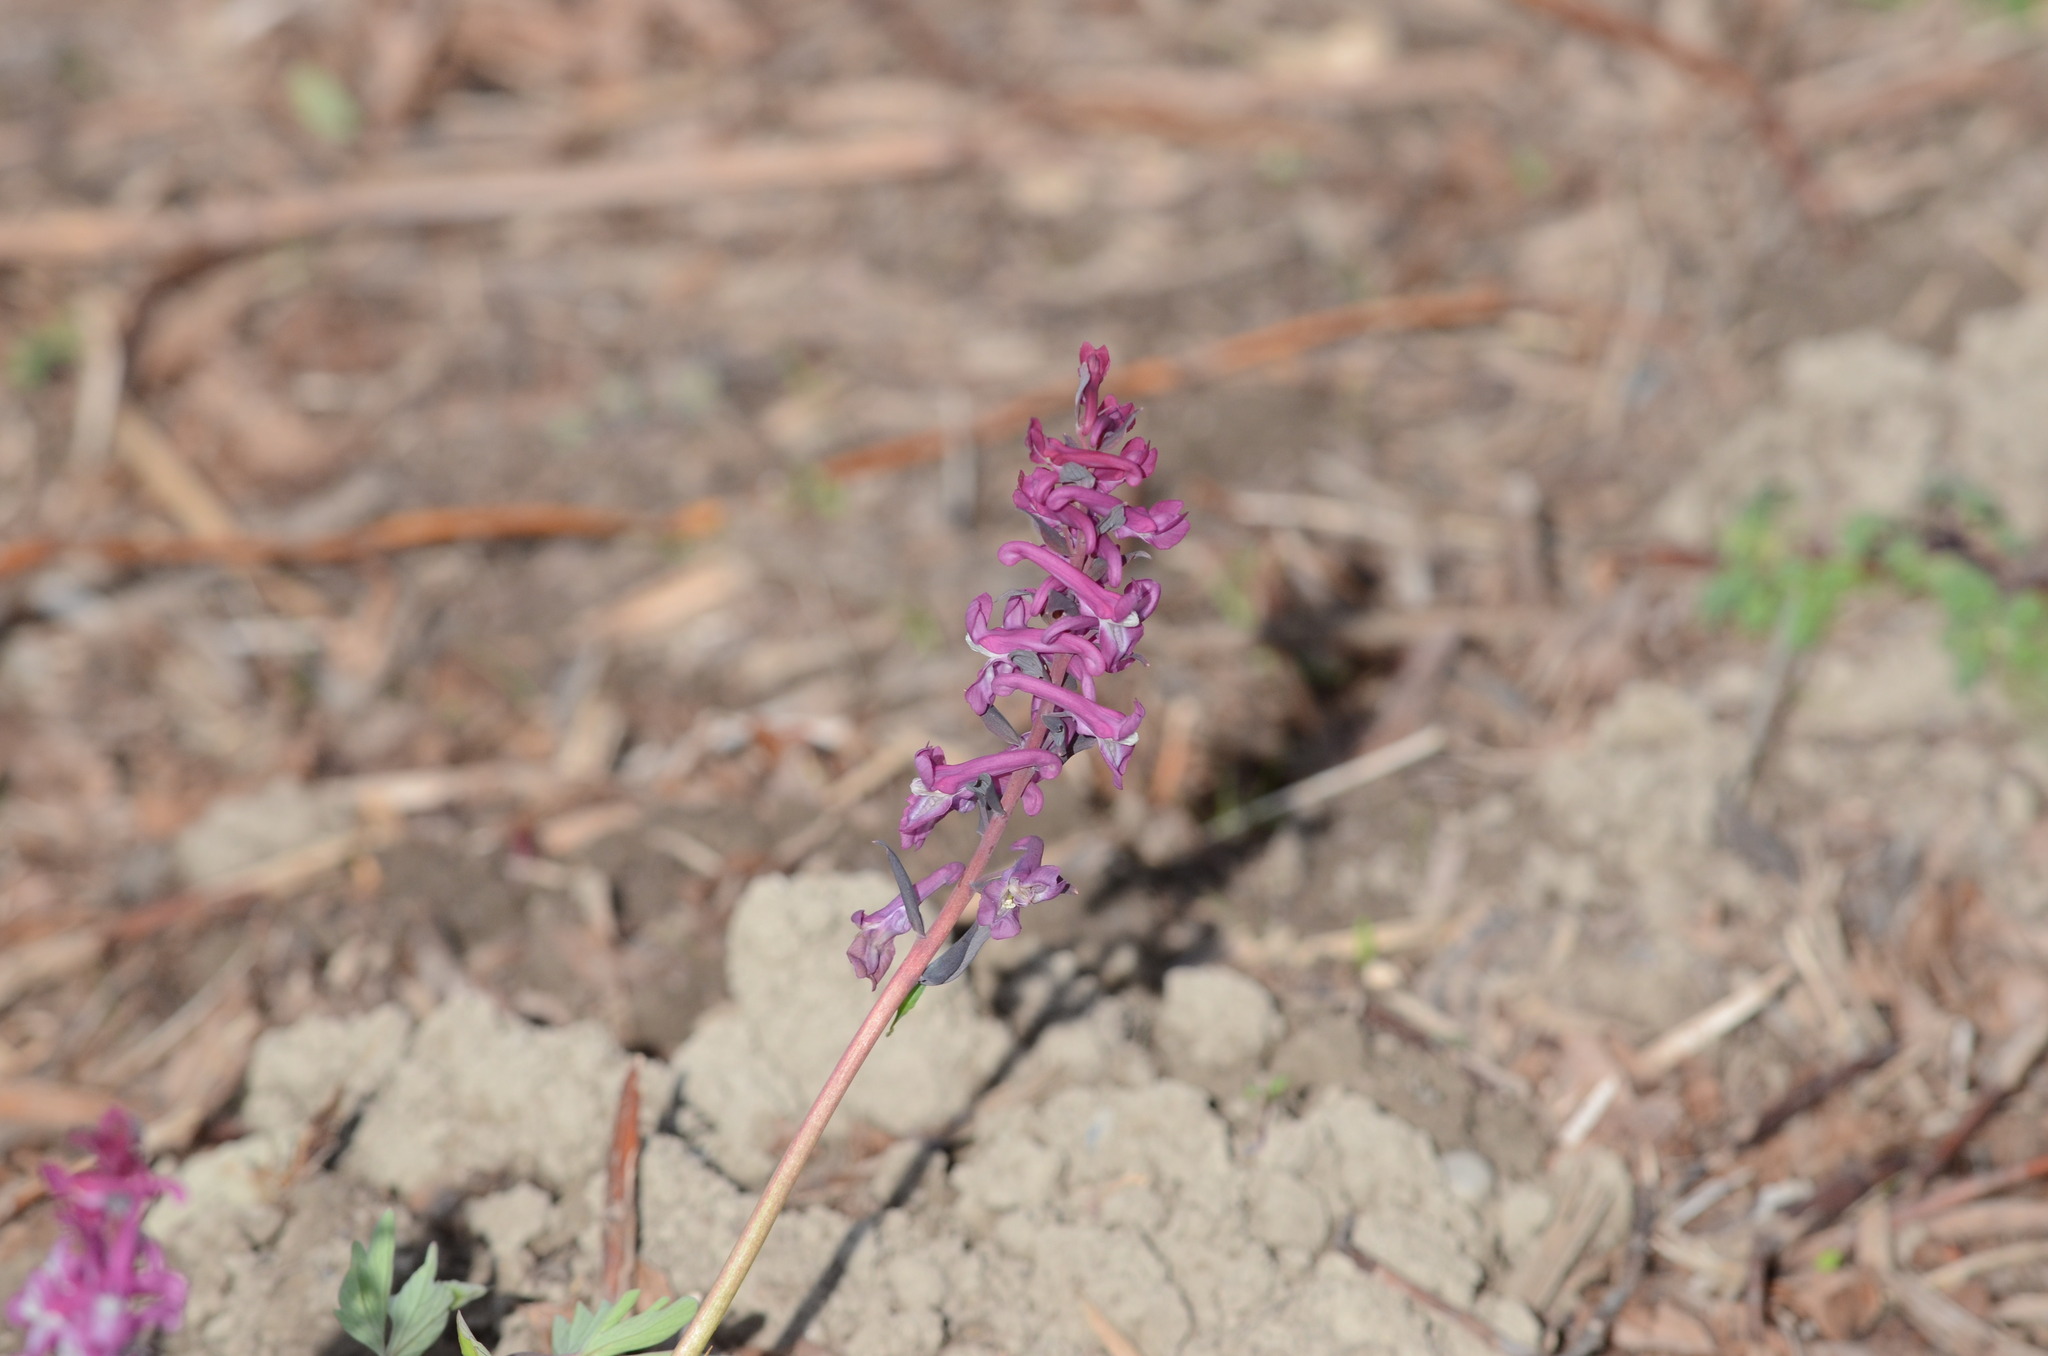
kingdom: Plantae
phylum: Tracheophyta
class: Magnoliopsida
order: Ranunculales
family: Papaveraceae
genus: Corydalis
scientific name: Corydalis cava
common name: Hollowroot
